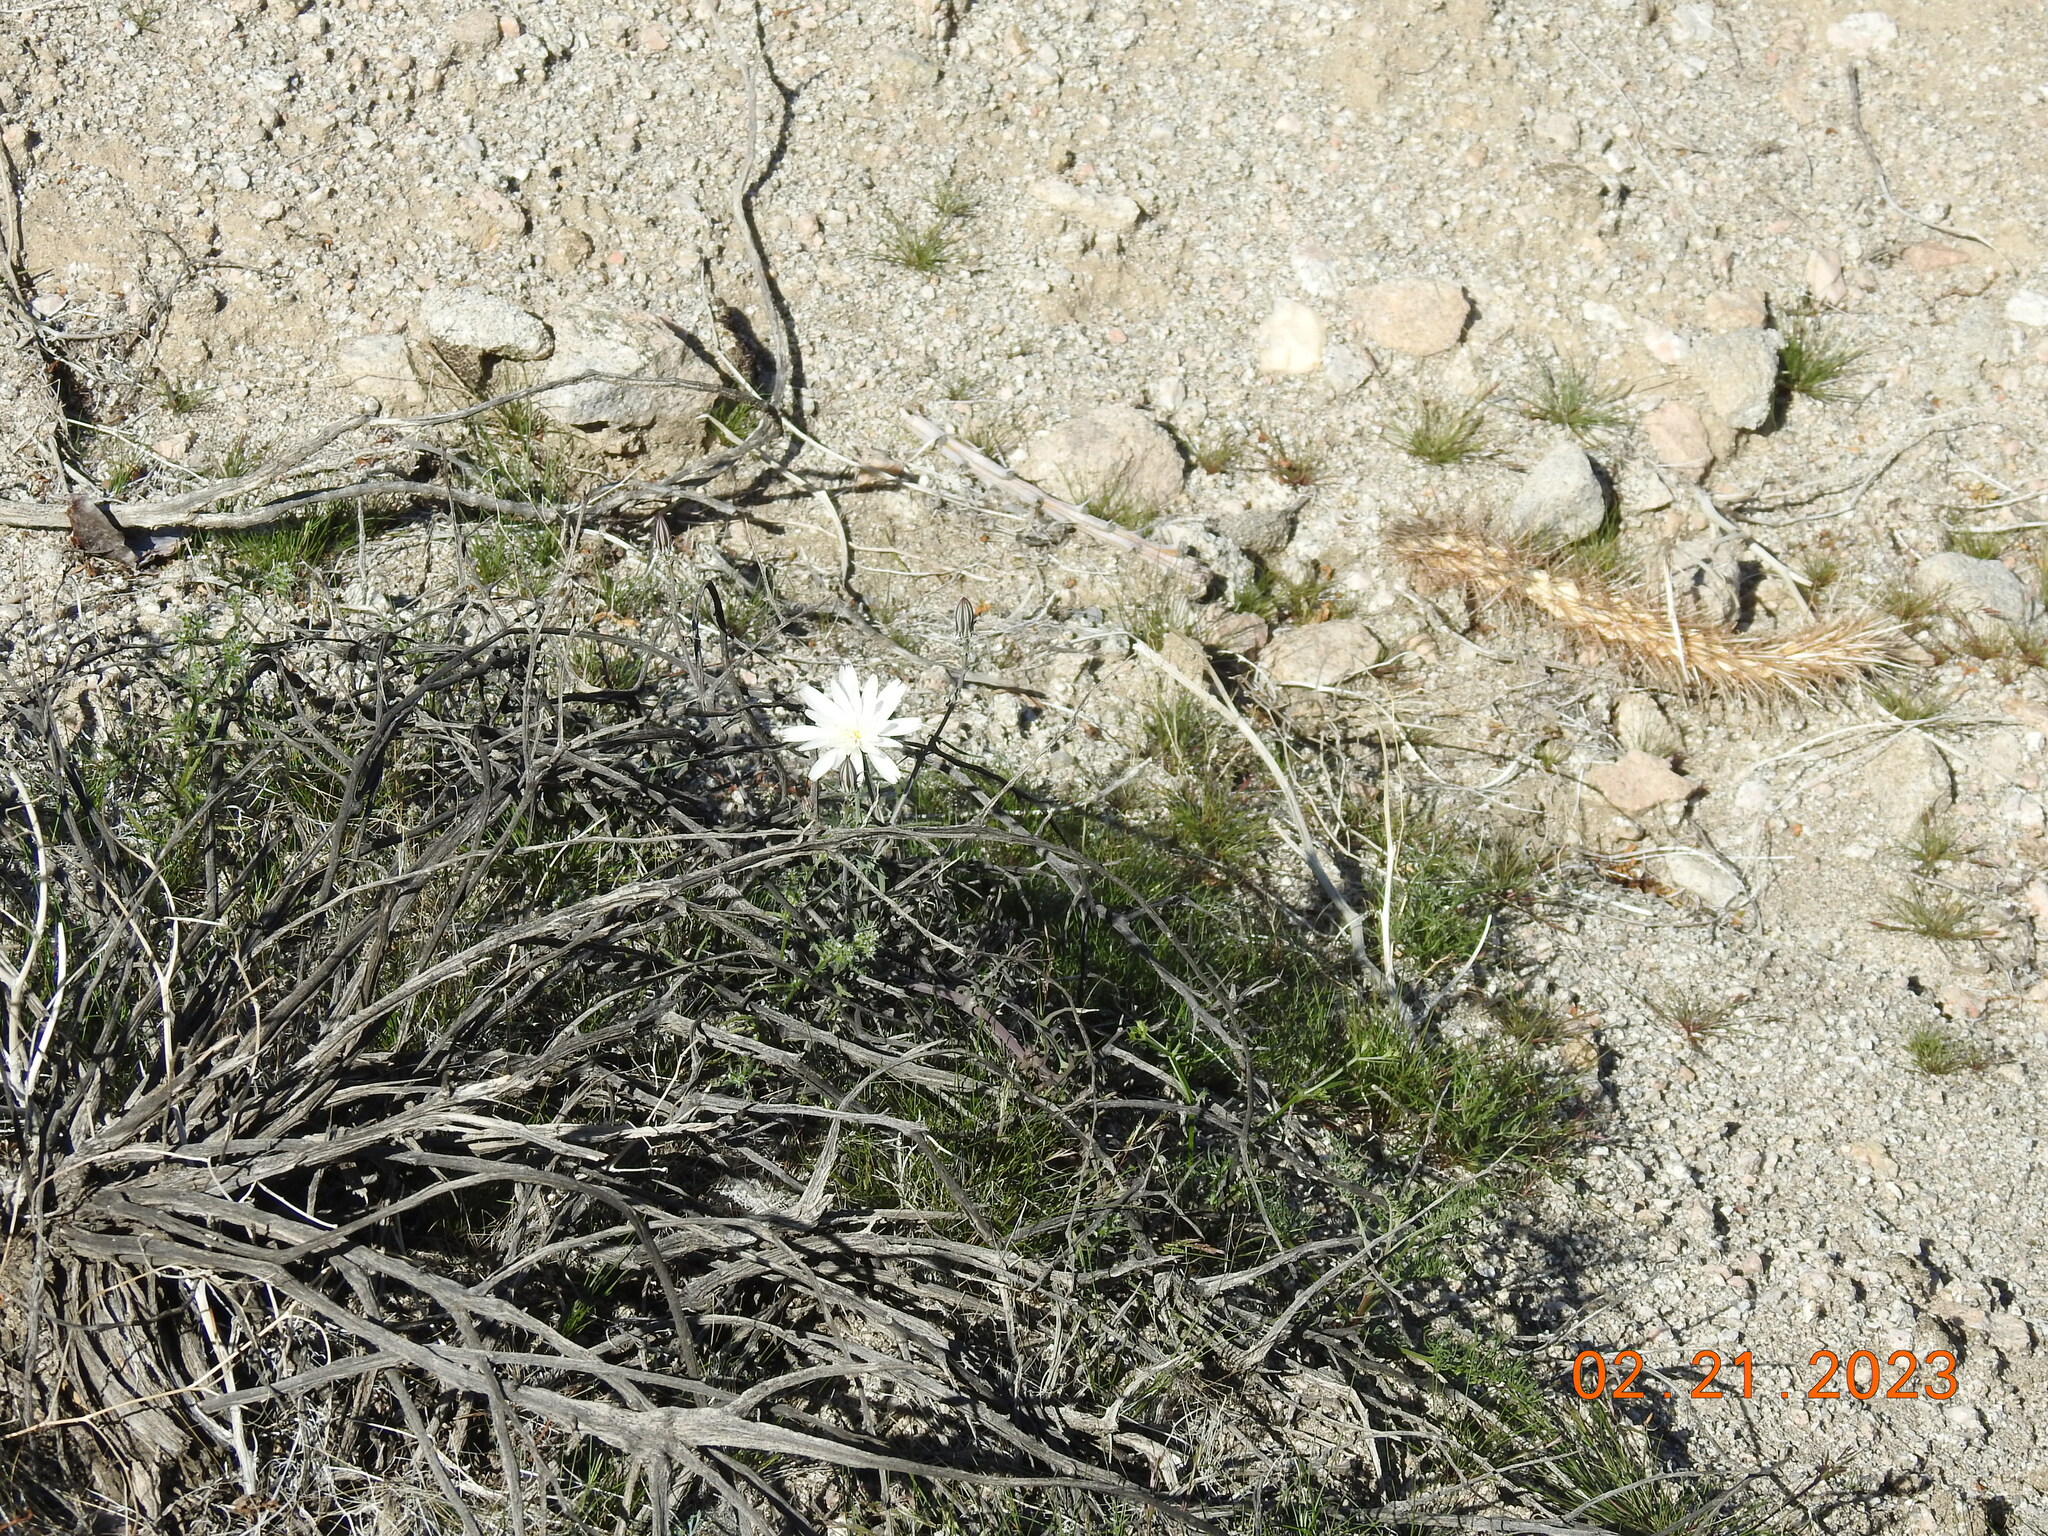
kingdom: Plantae
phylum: Tracheophyta
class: Magnoliopsida
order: Asterales
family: Asteraceae
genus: Rafinesquia
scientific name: Rafinesquia neomexicana
